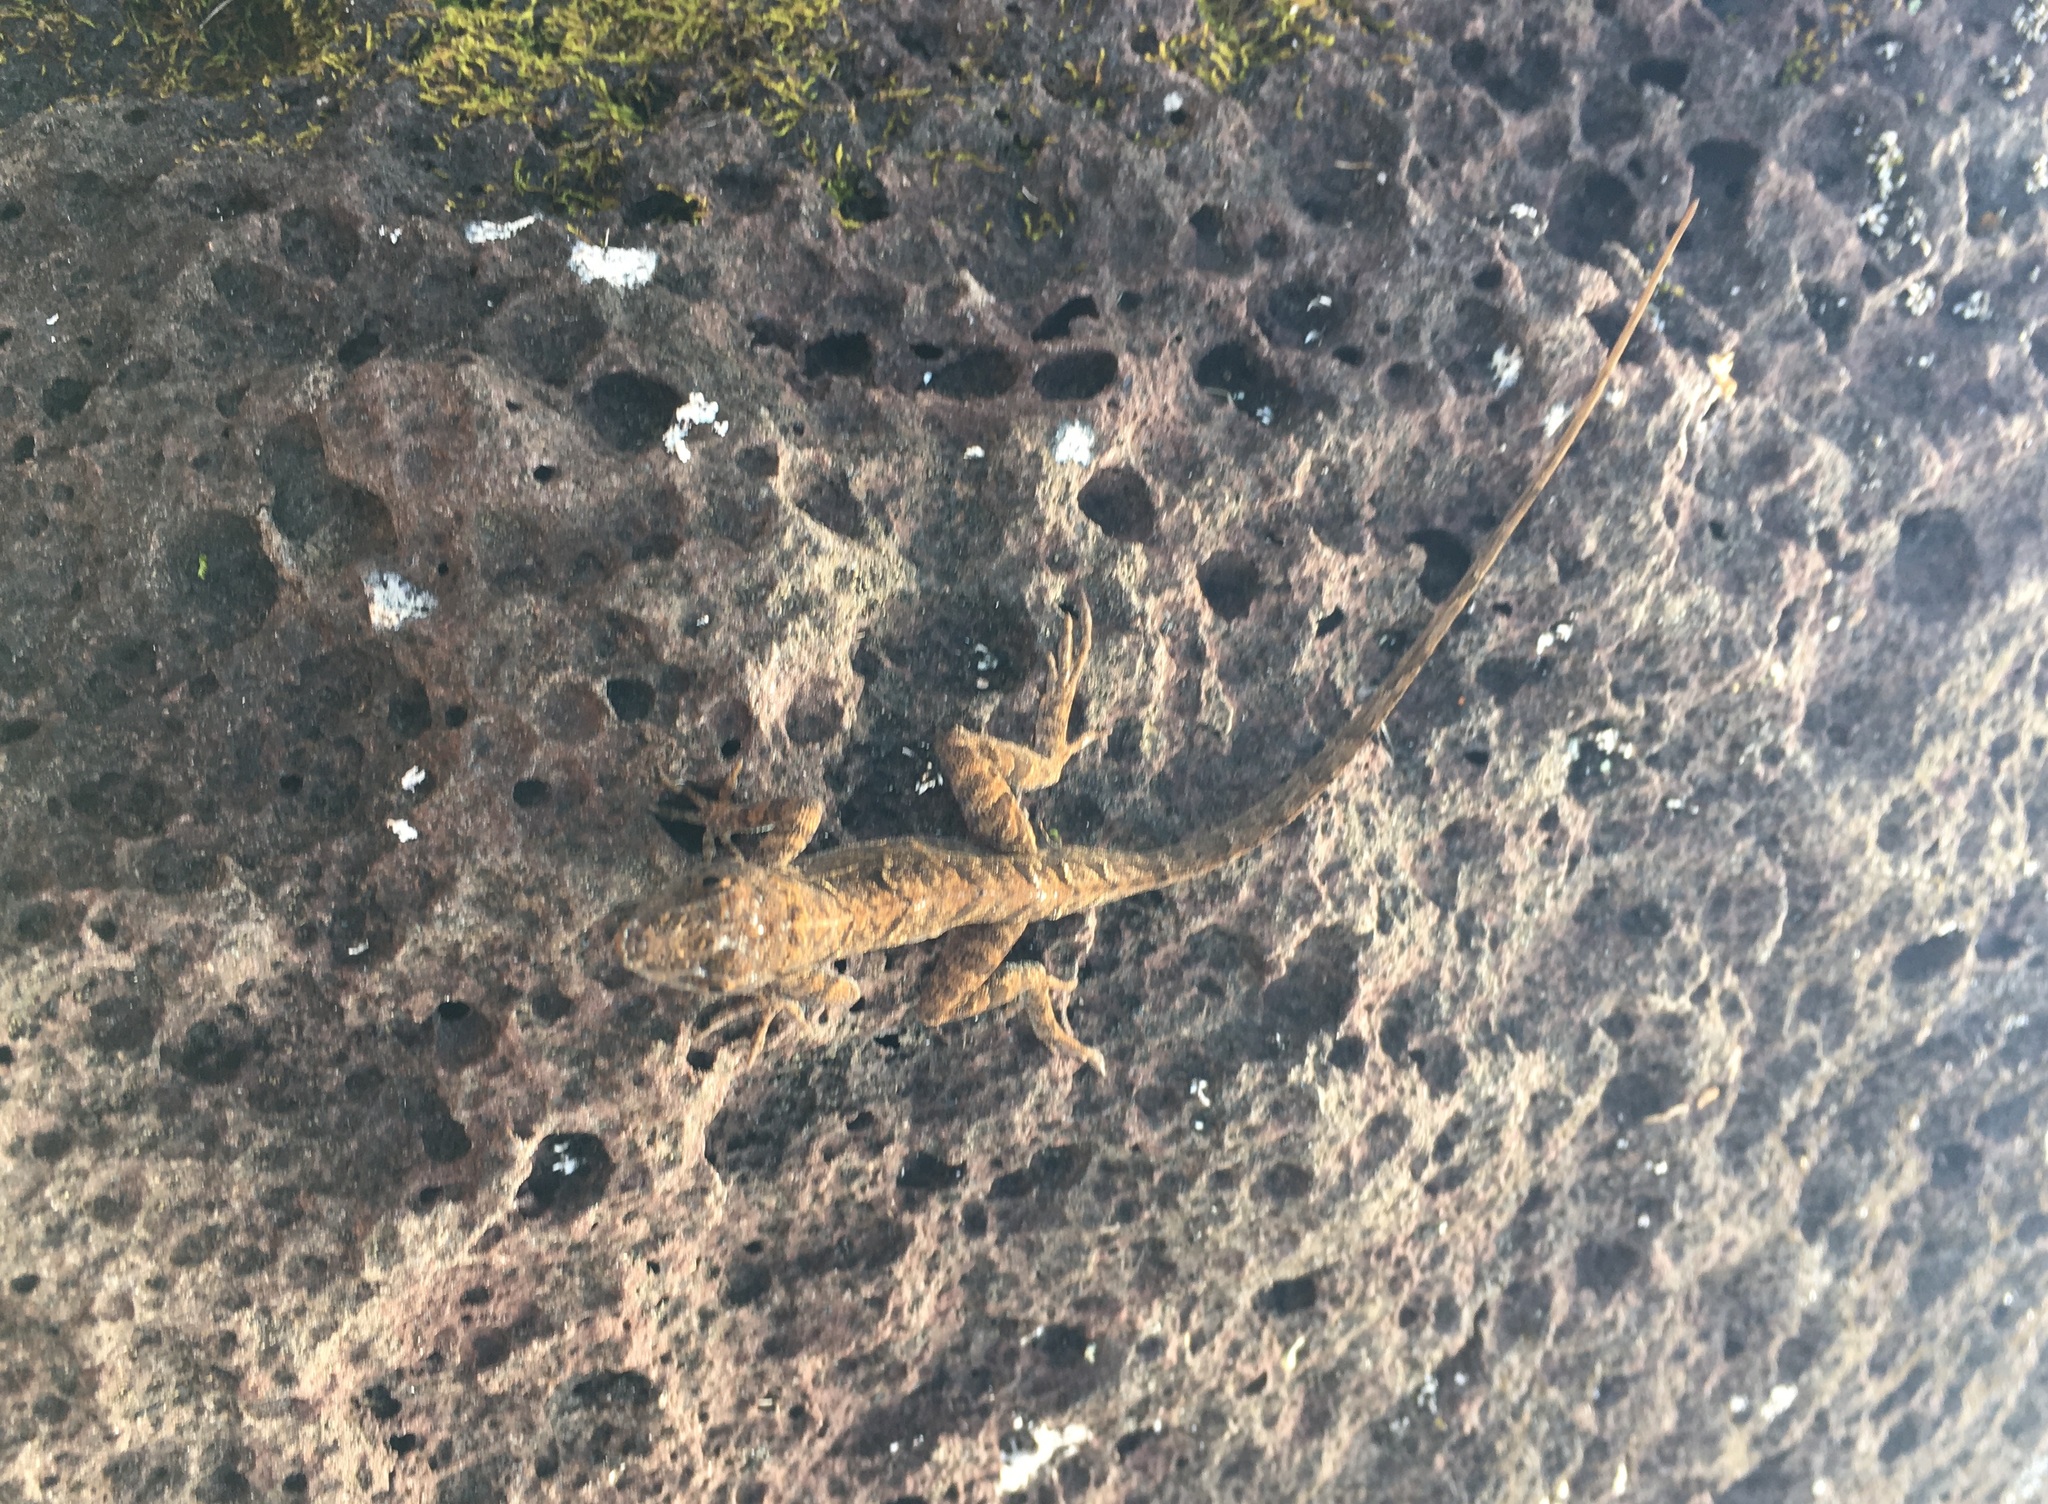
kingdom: Animalia
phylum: Chordata
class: Squamata
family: Dactyloidae
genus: Anolis
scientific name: Anolis sagrei
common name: Brown anole
